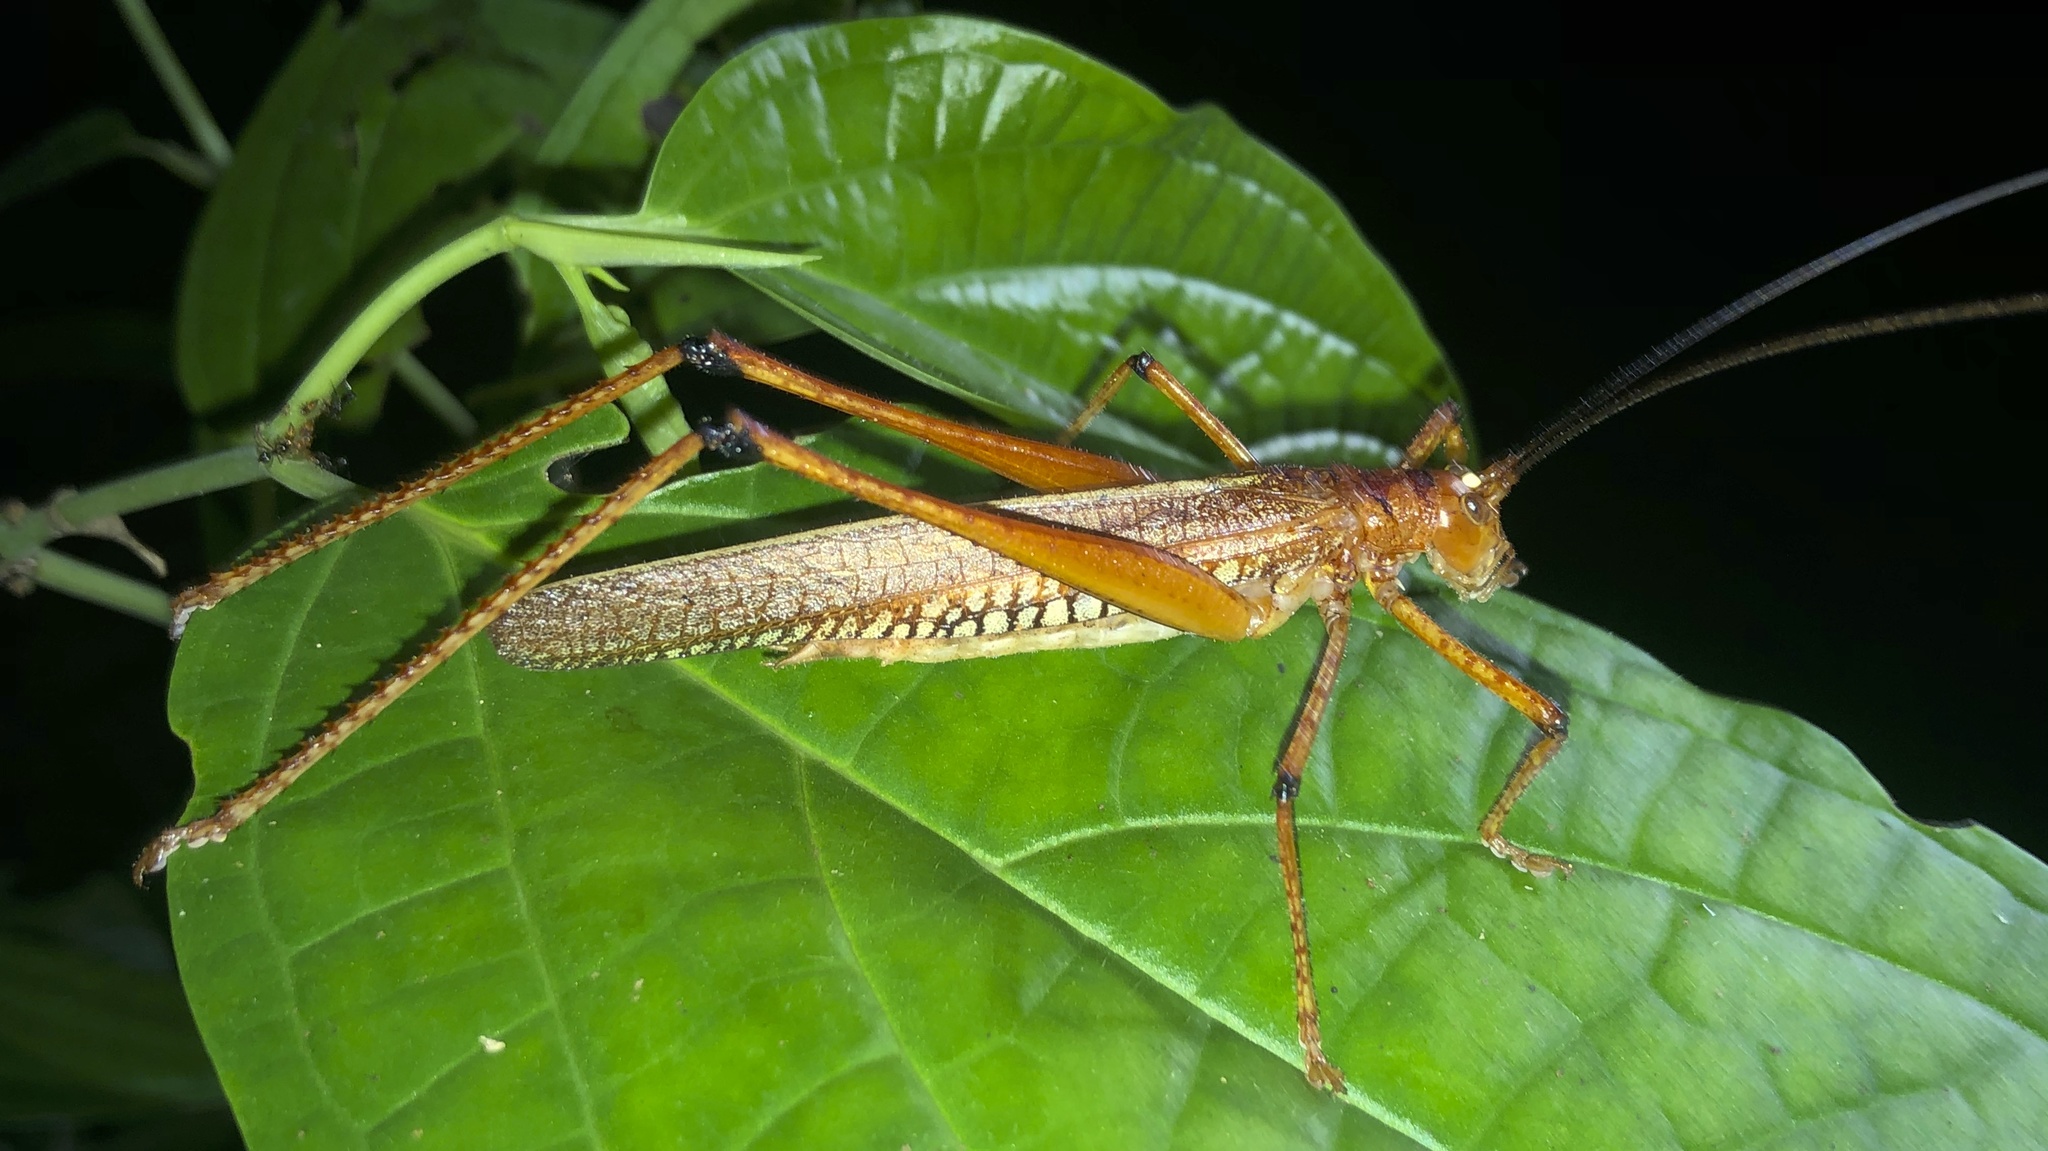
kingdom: Animalia
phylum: Arthropoda
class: Insecta
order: Orthoptera
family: Tettigoniidae
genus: Ischnomela
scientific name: Ischnomela gracilis
